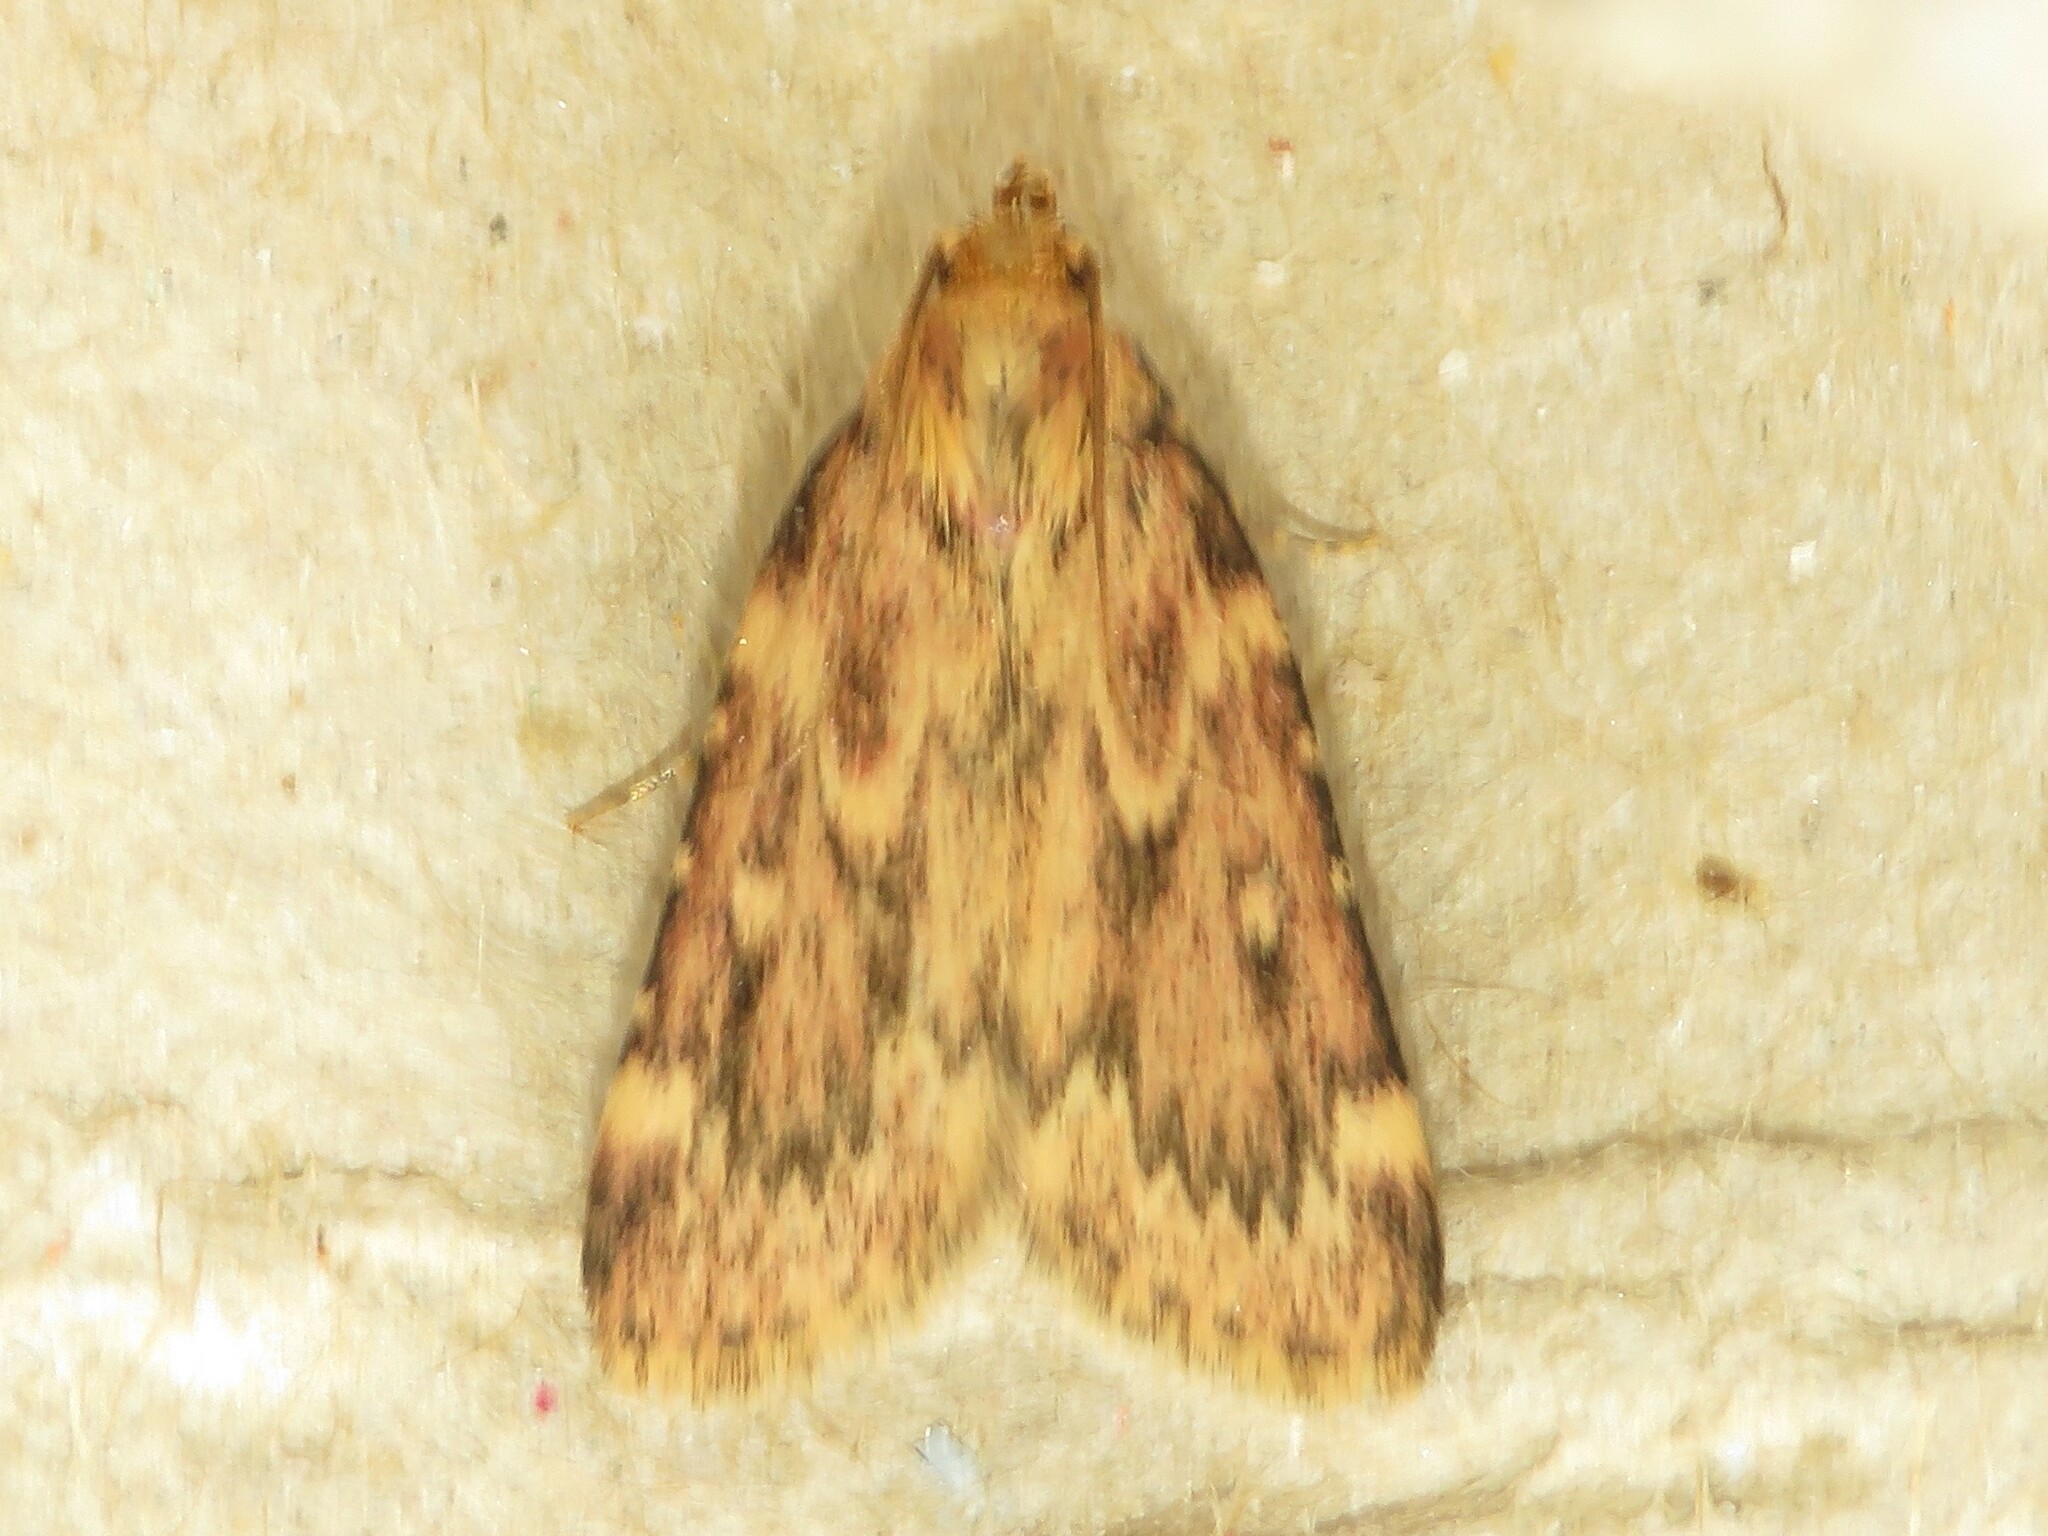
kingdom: Animalia
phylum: Arthropoda
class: Insecta
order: Lepidoptera
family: Pyralidae
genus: Aglossa
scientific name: Aglossa cuprina
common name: Grease moth
